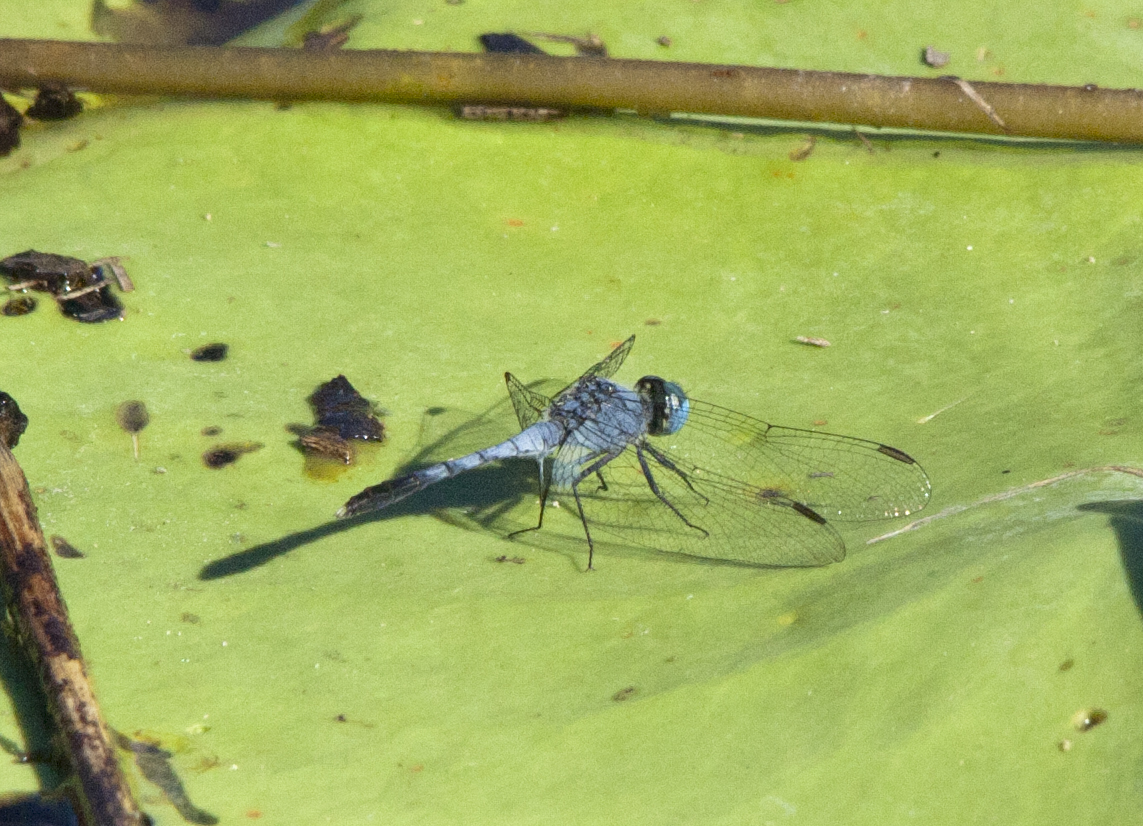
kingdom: Animalia
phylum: Arthropoda
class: Insecta
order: Odonata
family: Libellulidae
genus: Diplacodes
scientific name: Diplacodes trivialis
